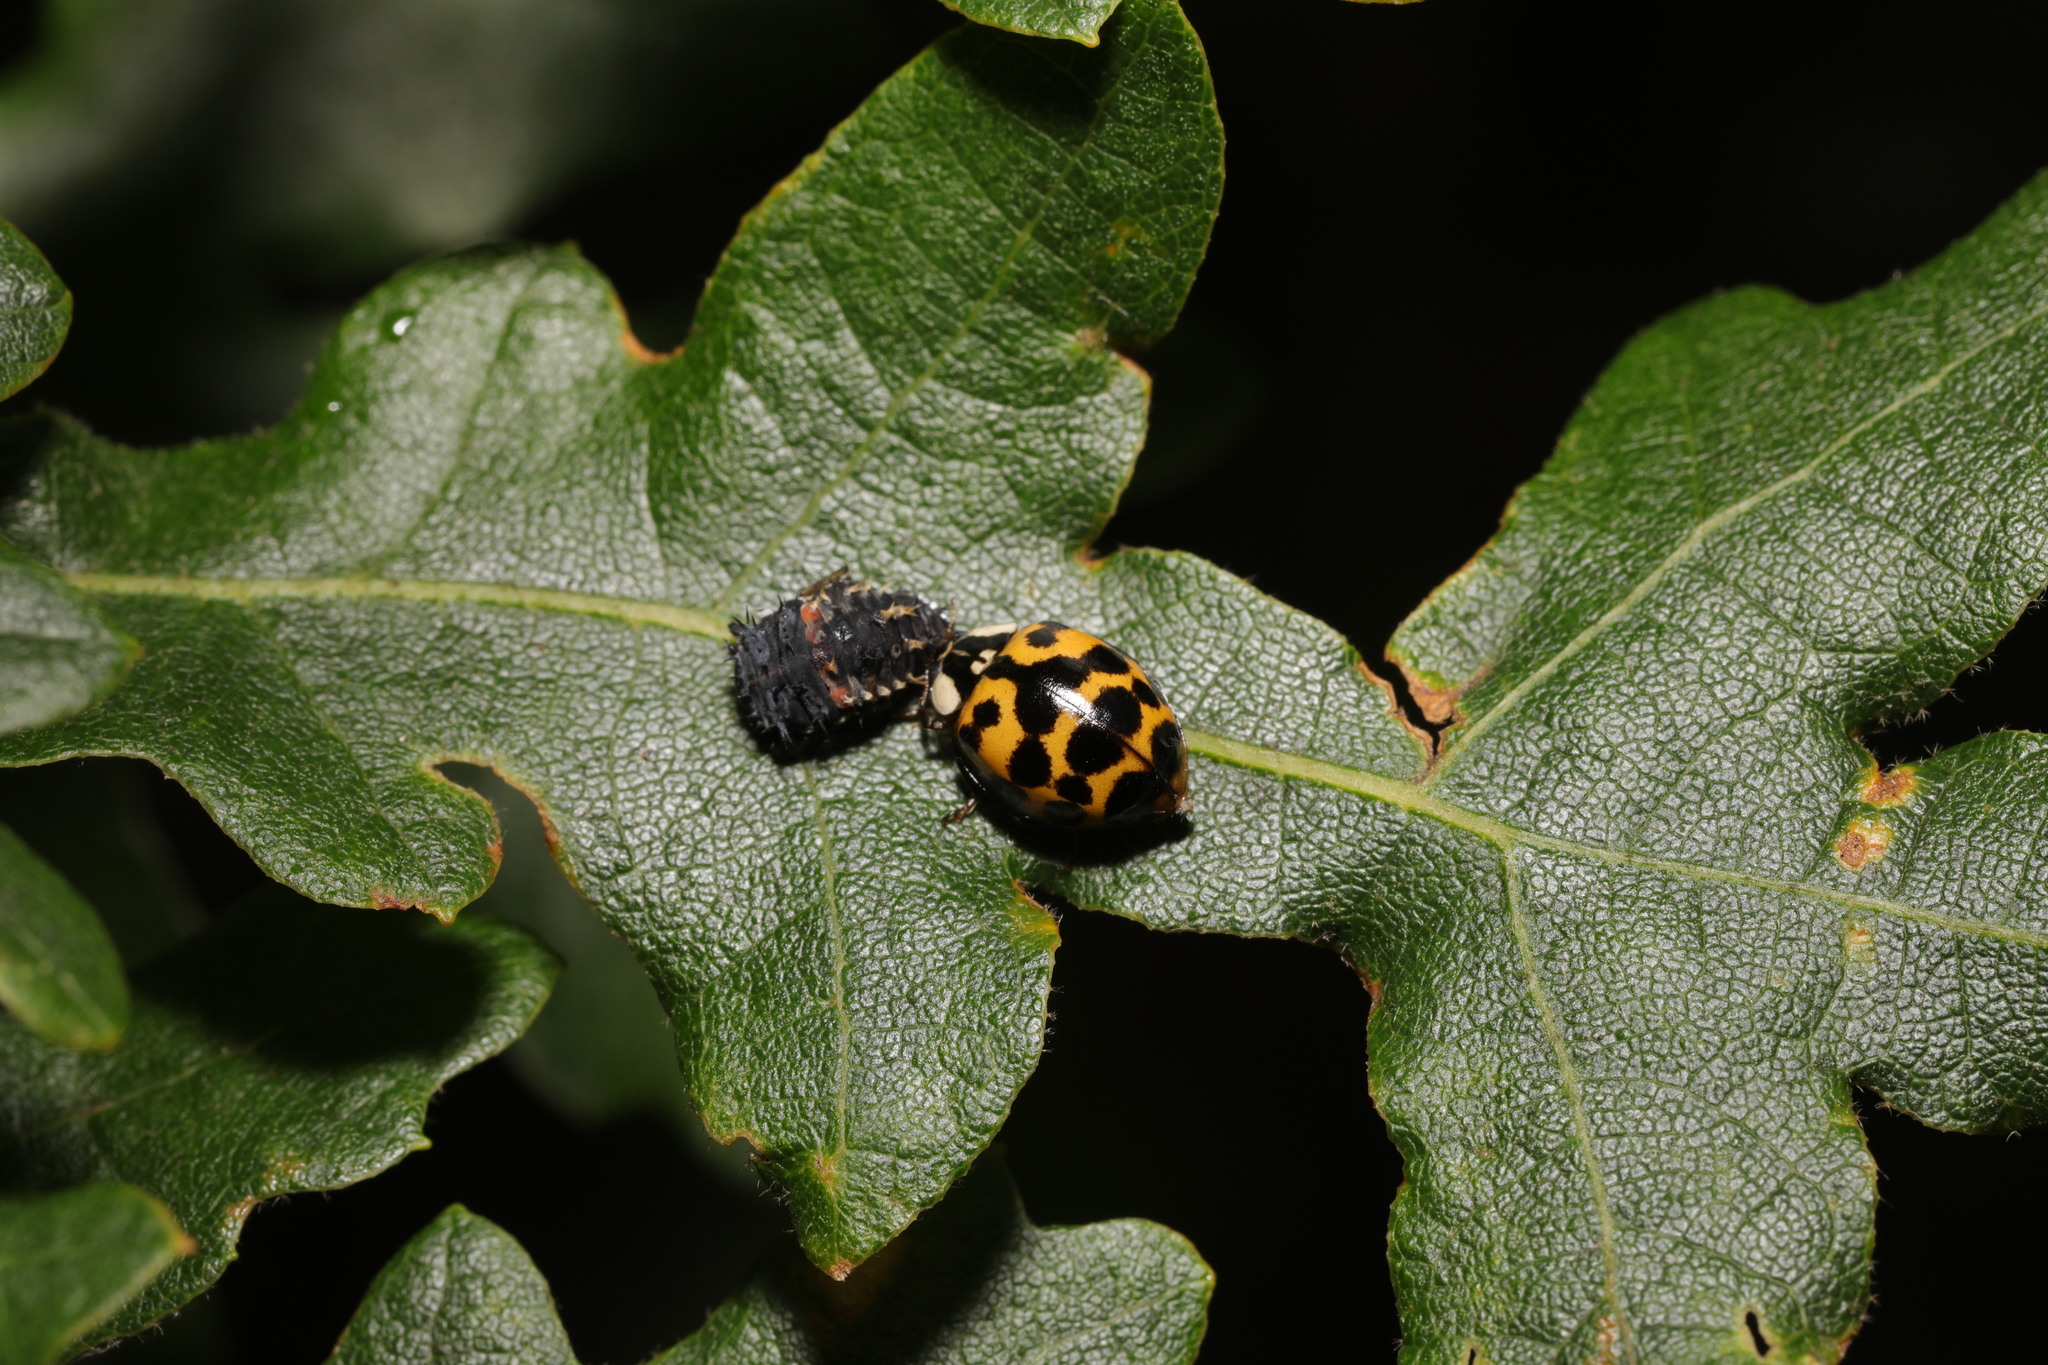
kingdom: Animalia
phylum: Arthropoda
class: Insecta
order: Coleoptera
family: Coccinellidae
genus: Harmonia
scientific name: Harmonia axyridis
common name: Harlequin ladybird
